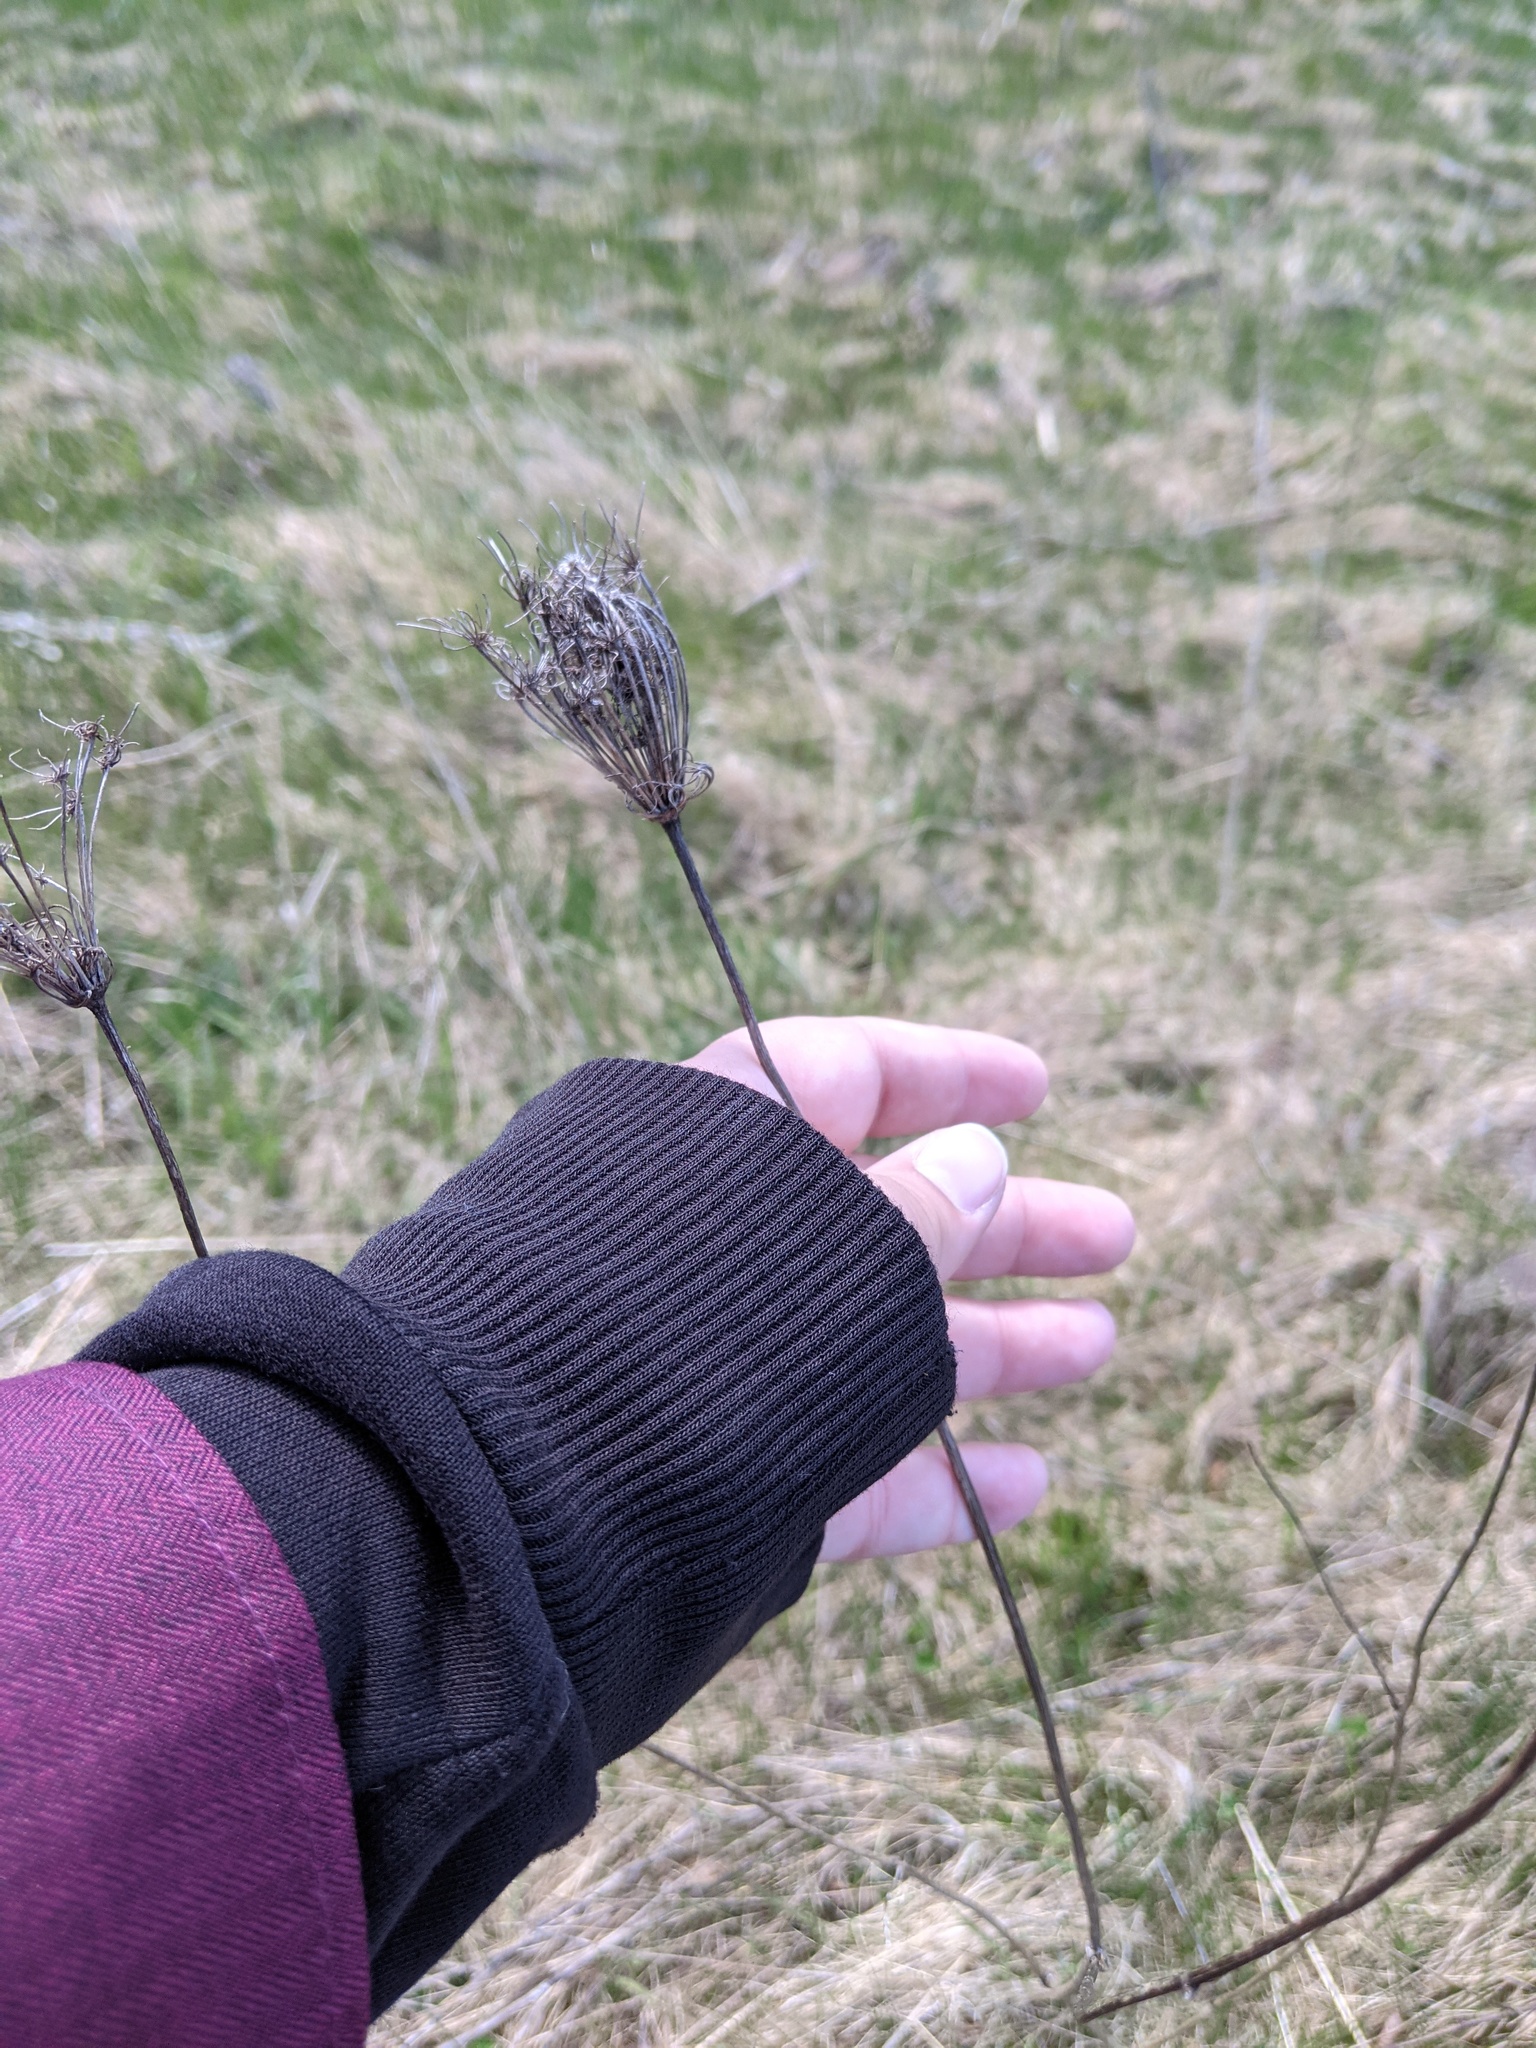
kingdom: Plantae
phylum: Tracheophyta
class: Magnoliopsida
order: Apiales
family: Apiaceae
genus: Daucus
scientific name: Daucus carota
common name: Wild carrot
